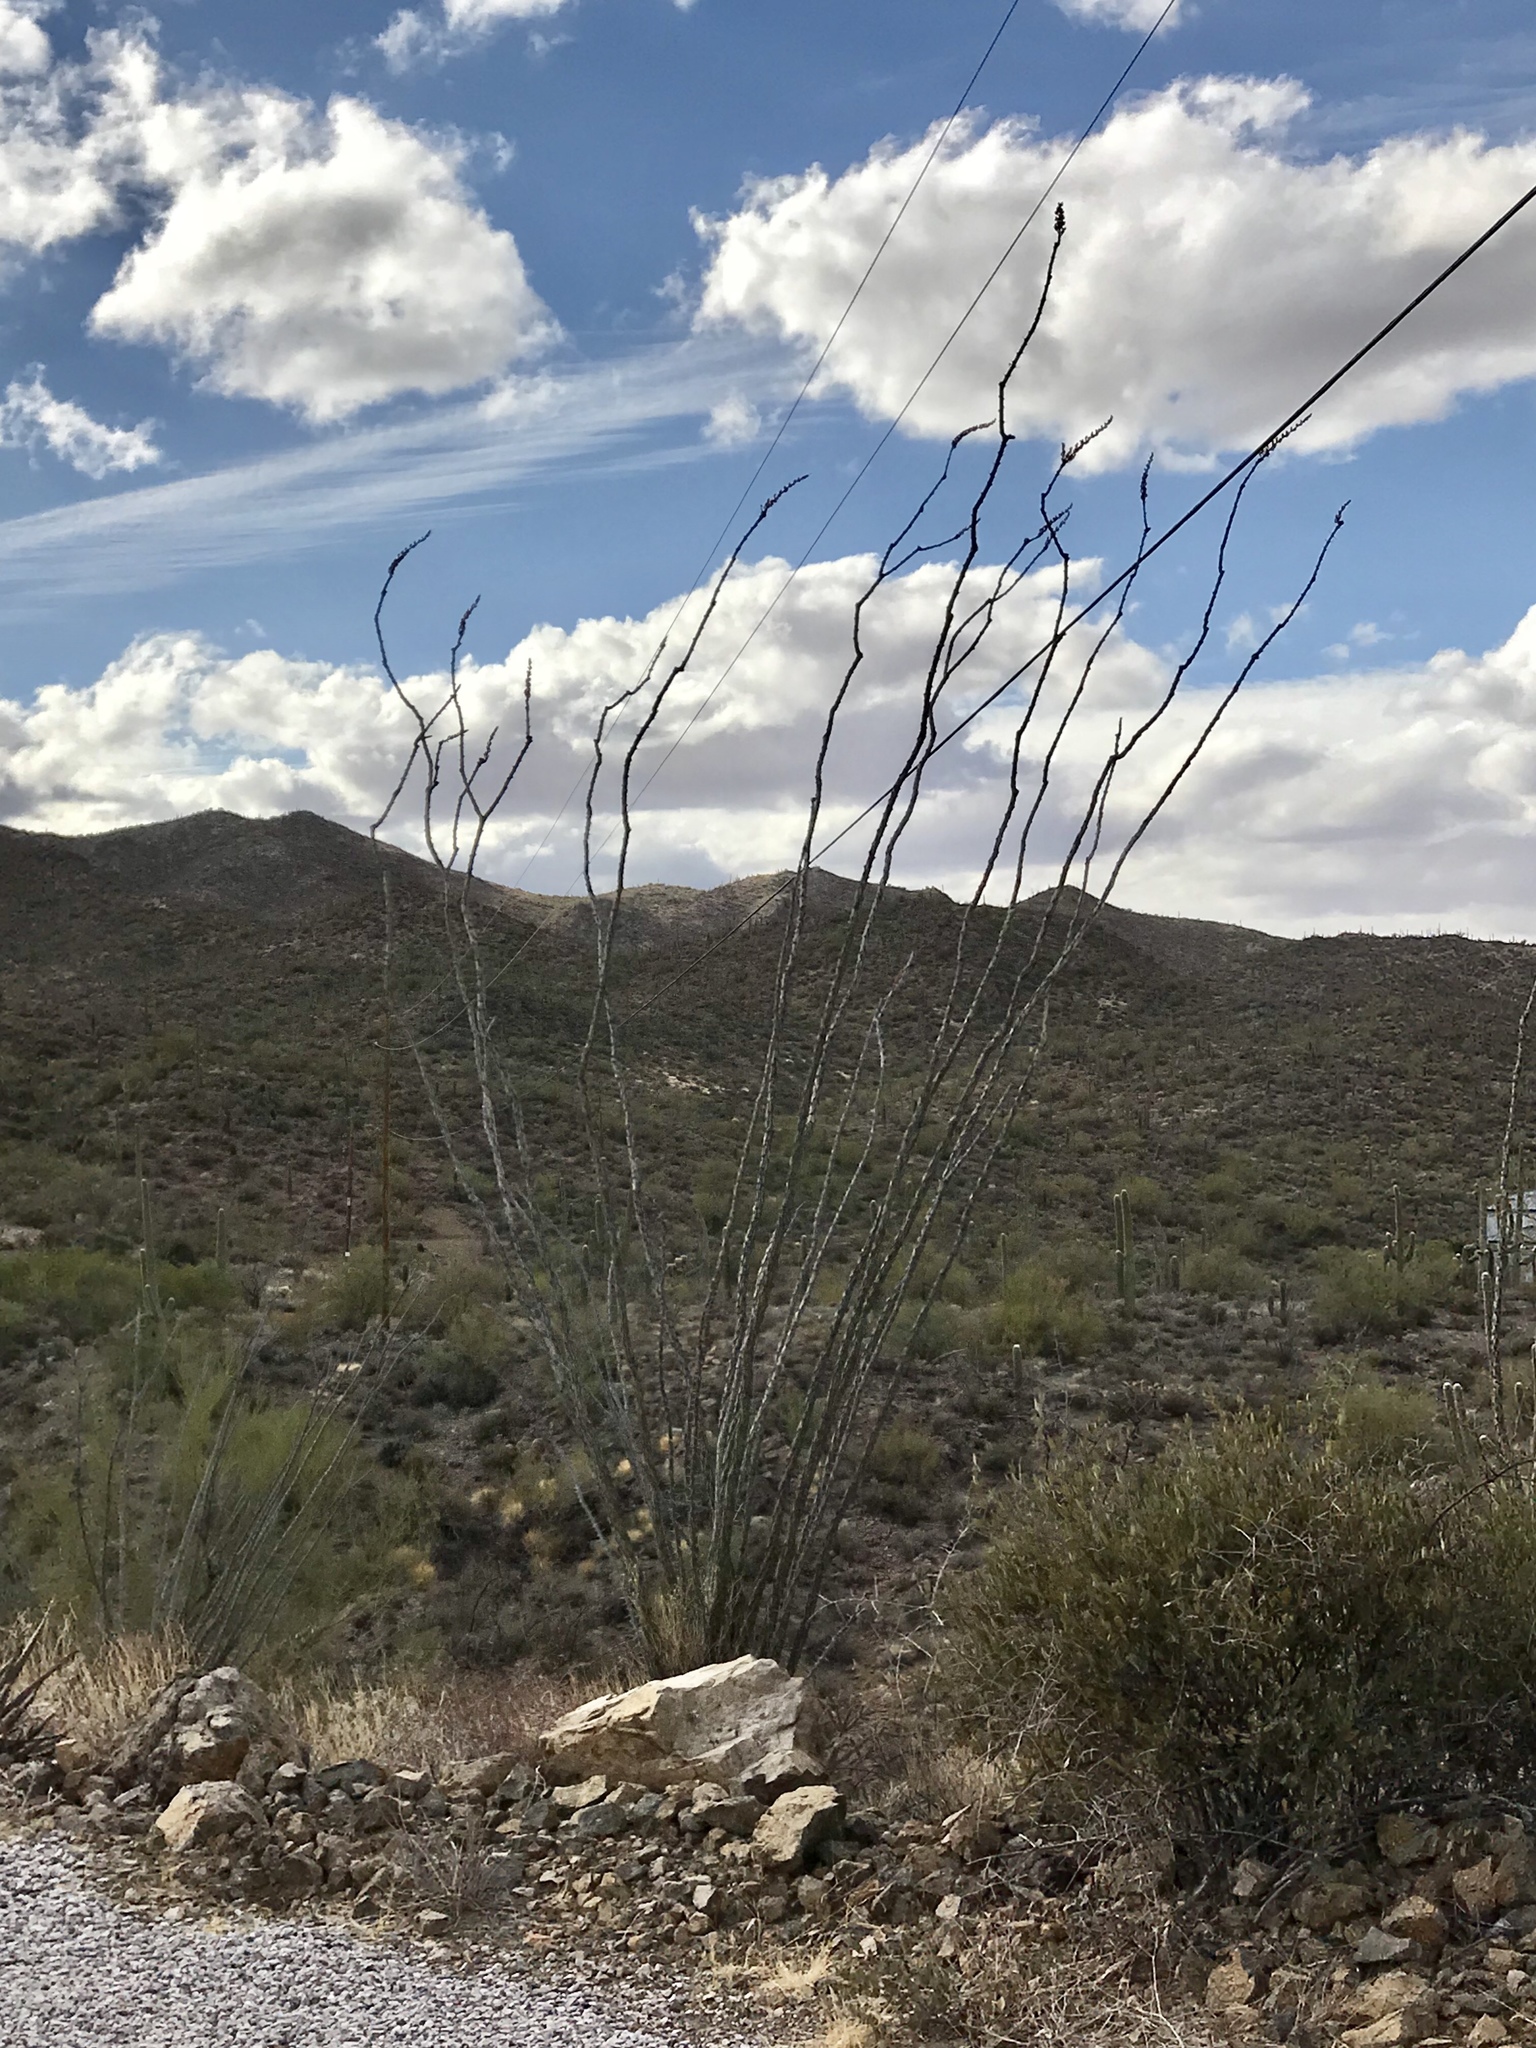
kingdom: Plantae
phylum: Tracheophyta
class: Magnoliopsida
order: Ericales
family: Fouquieriaceae
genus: Fouquieria
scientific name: Fouquieria splendens
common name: Vine-cactus
